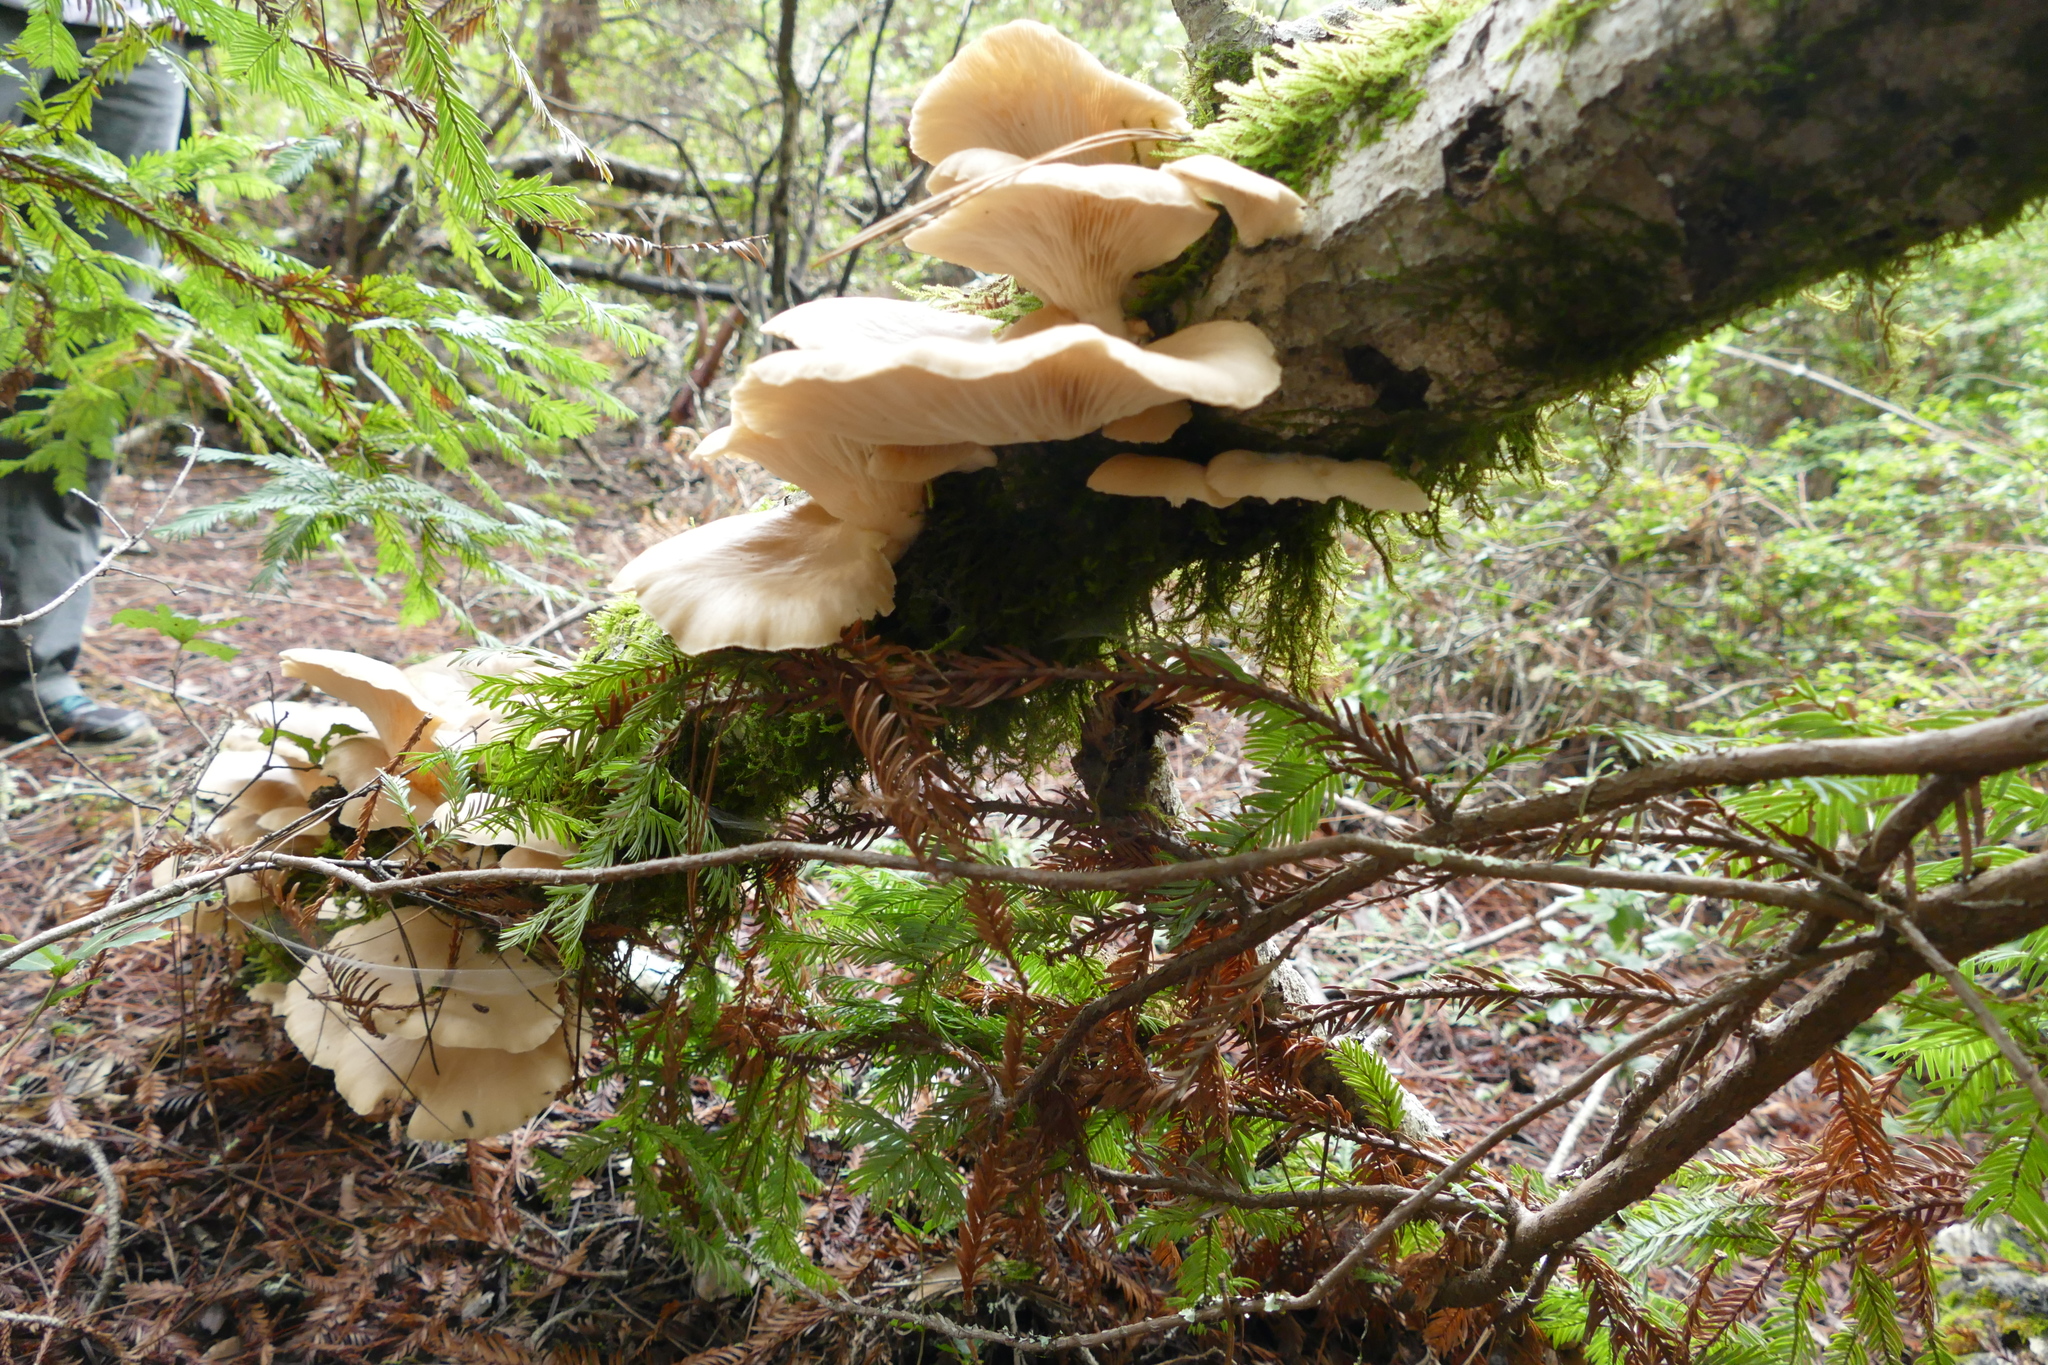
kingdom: Fungi
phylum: Basidiomycota
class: Agaricomycetes
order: Agaricales
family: Pleurotaceae
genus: Pleurotus
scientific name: Pleurotus pulmonarius
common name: Pale oyster
